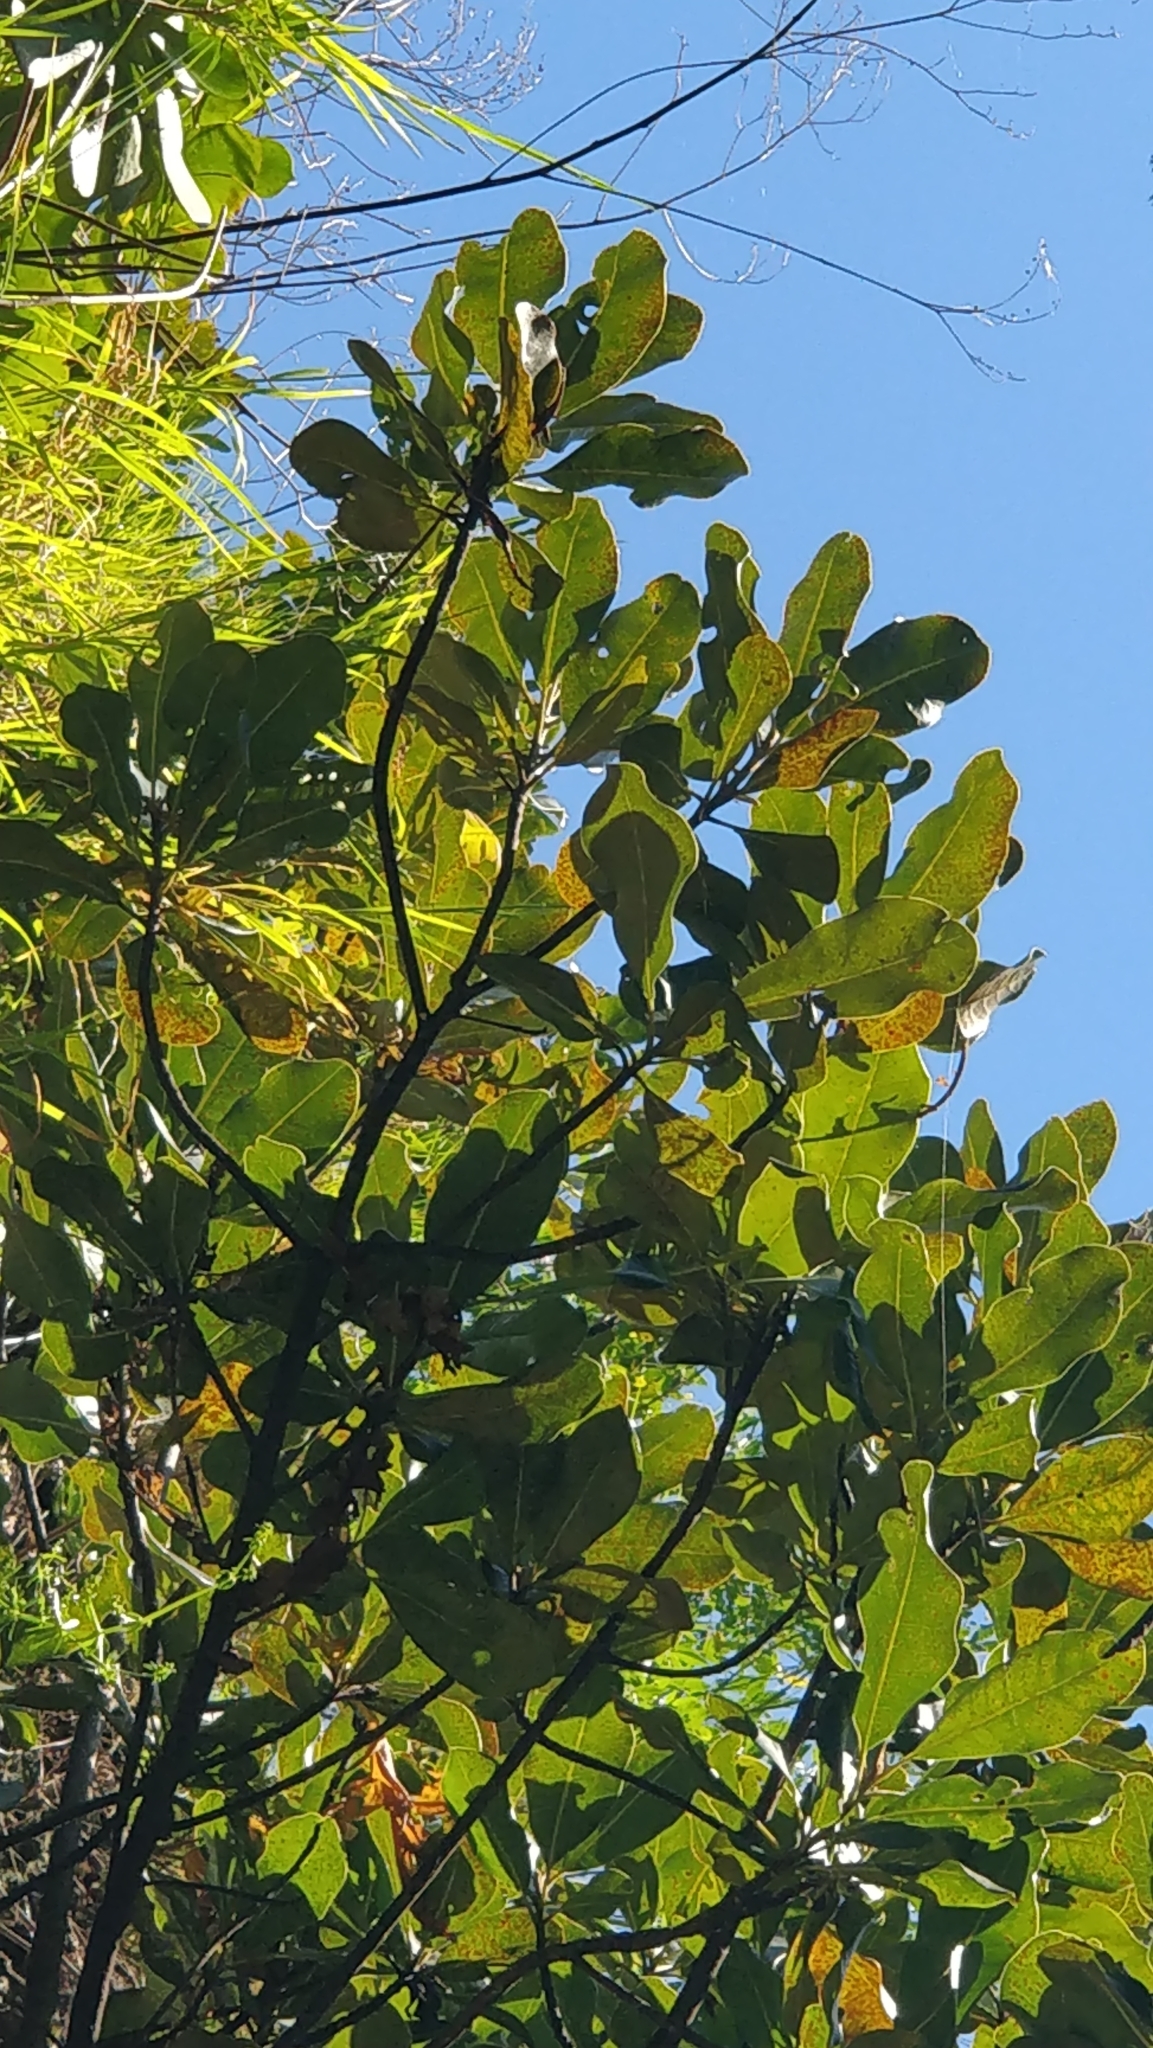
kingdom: Plantae
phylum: Tracheophyta
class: Magnoliopsida
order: Ericales
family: Sapotaceae
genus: Sideroxylon
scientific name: Sideroxylon mirmulans
